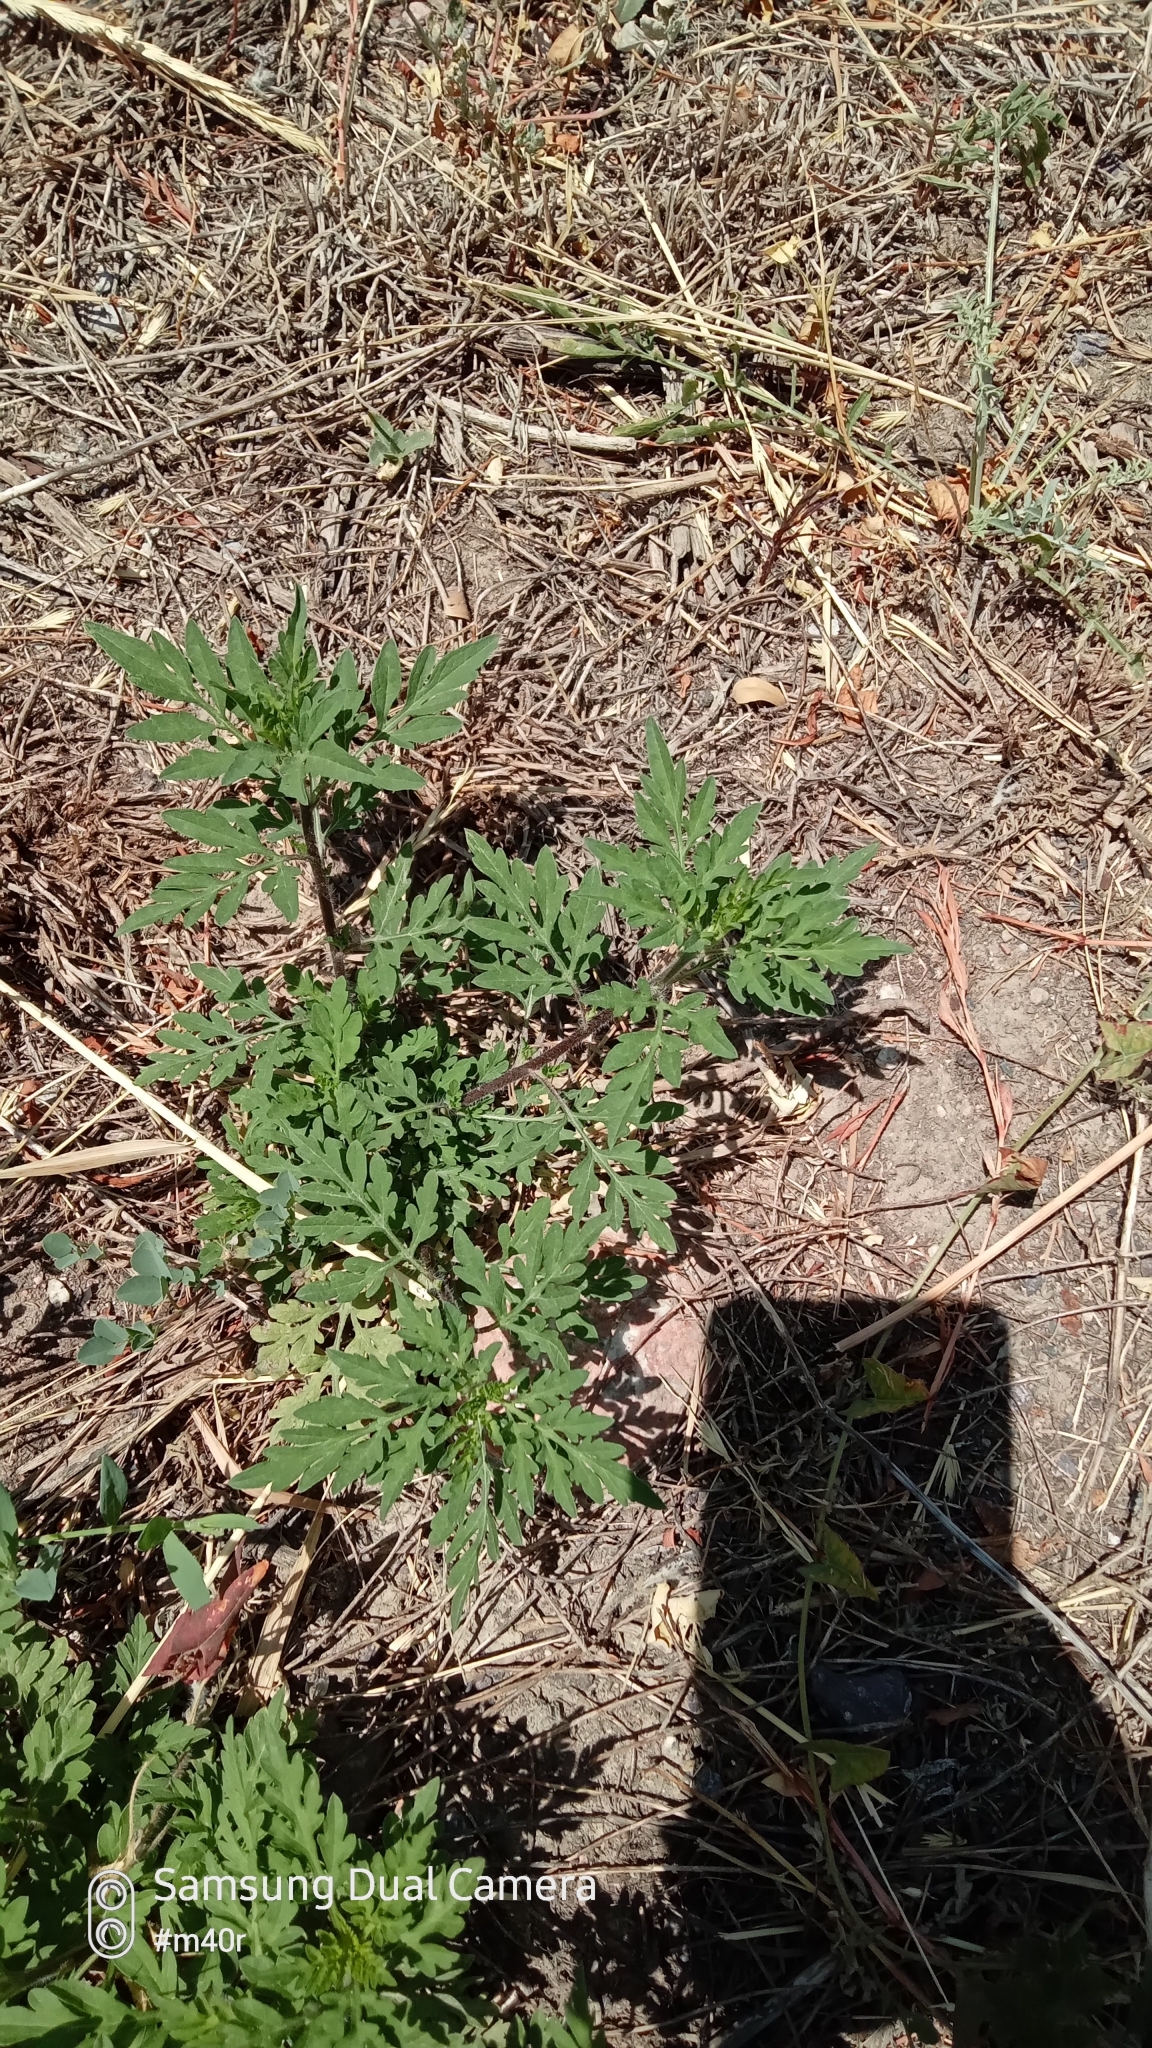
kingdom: Plantae
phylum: Tracheophyta
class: Magnoliopsida
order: Asterales
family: Asteraceae
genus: Ambrosia
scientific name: Ambrosia artemisiifolia
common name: Annual ragweed
